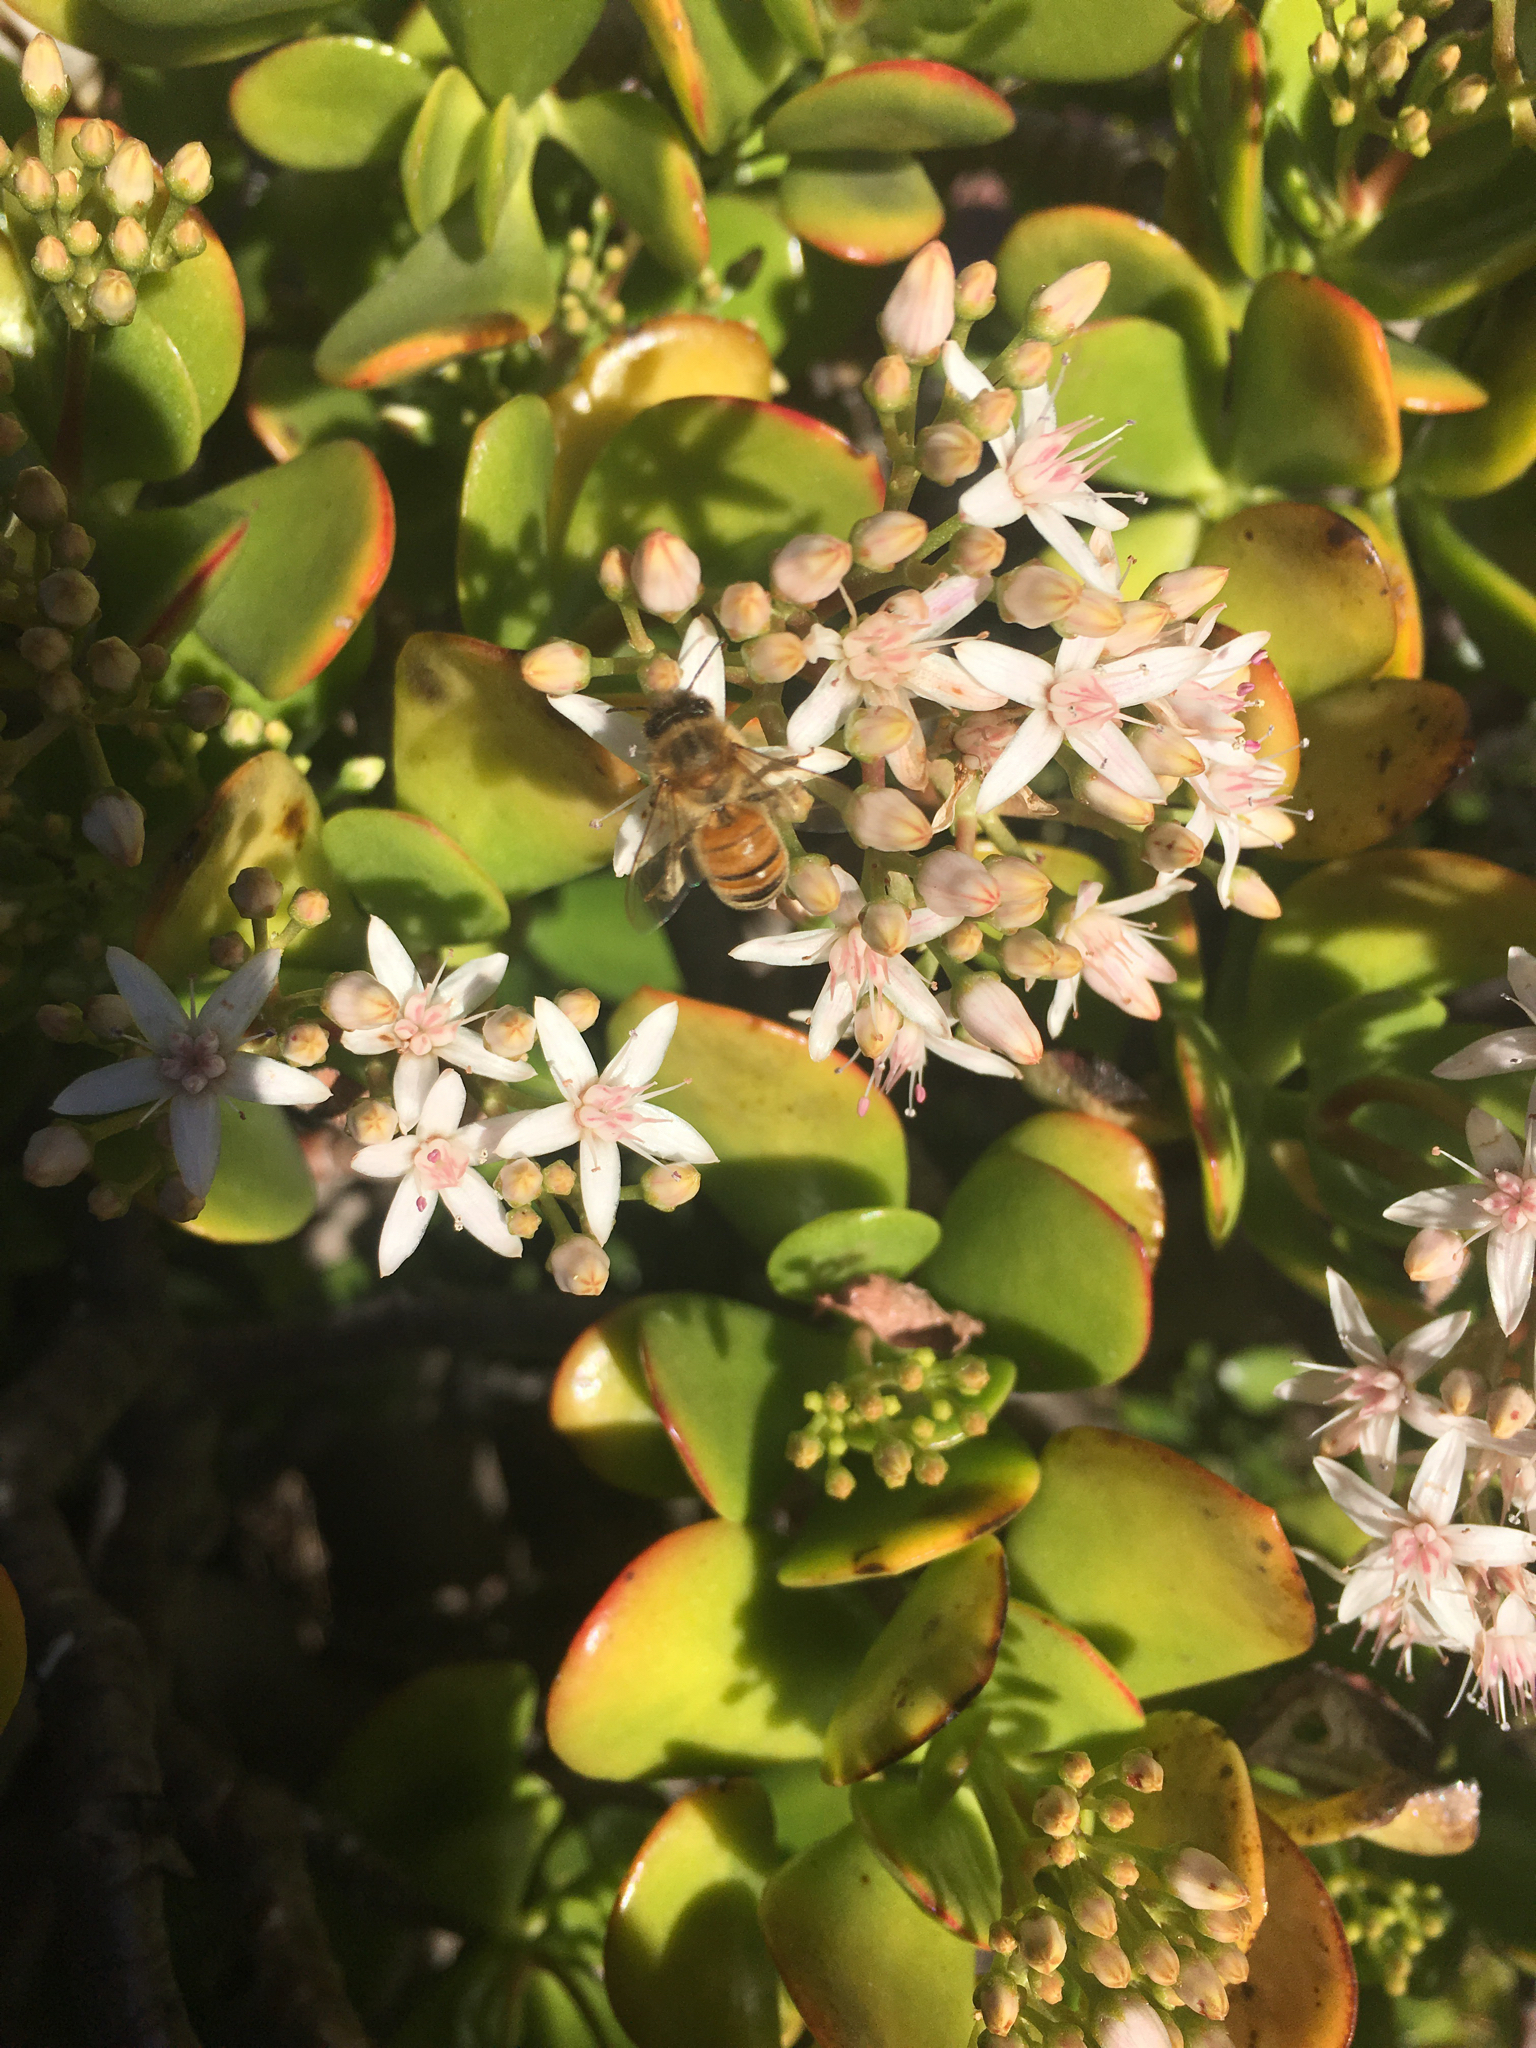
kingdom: Animalia
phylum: Arthropoda
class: Insecta
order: Hymenoptera
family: Apidae
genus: Apis
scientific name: Apis mellifera
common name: Honey bee
